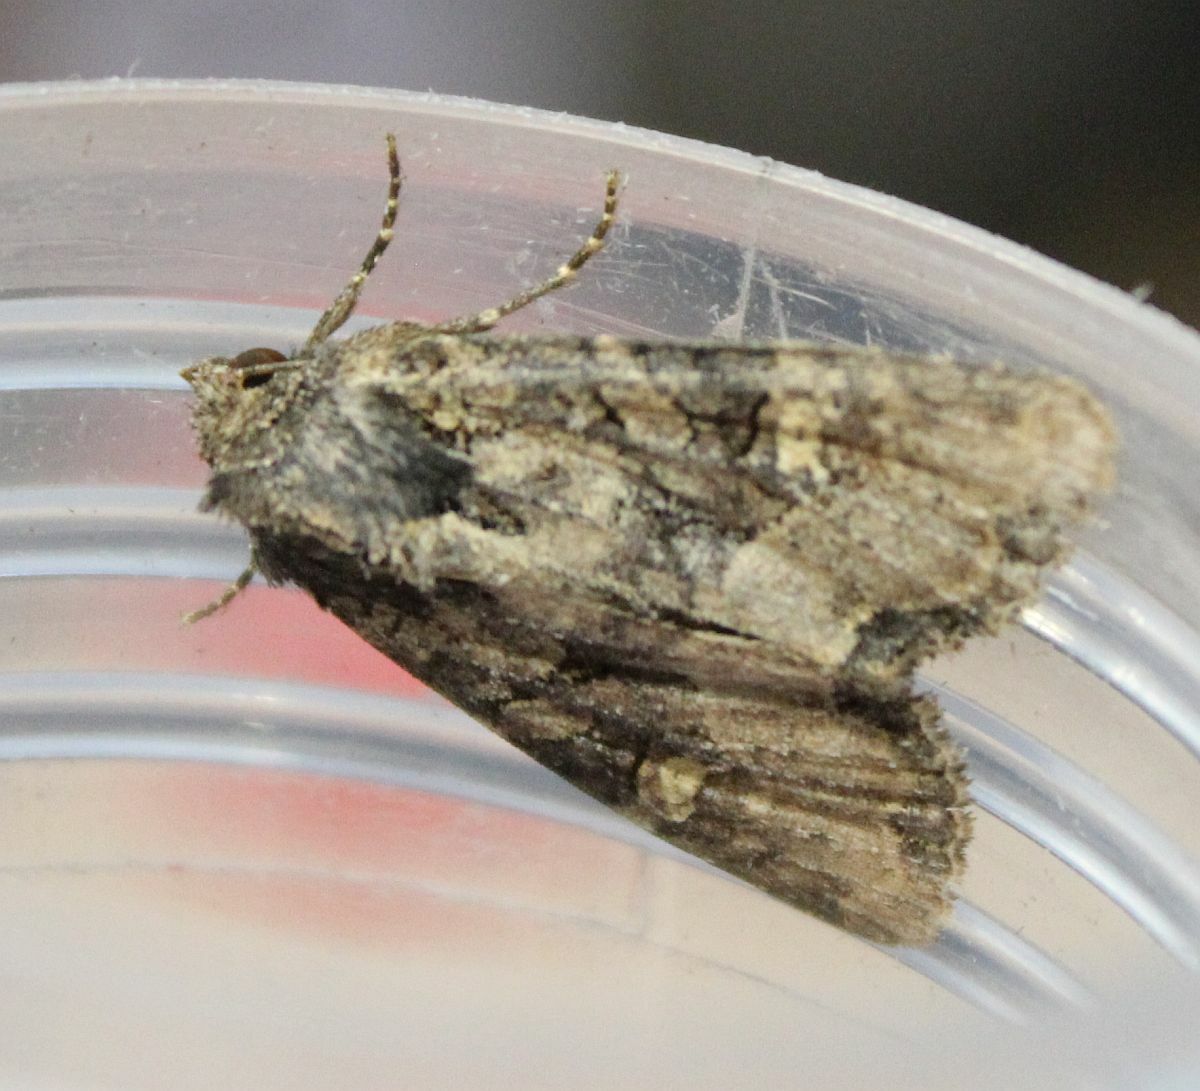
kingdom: Animalia
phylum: Arthropoda
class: Insecta
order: Lepidoptera
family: Noctuidae
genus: Apamea
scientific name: Apamea remissa
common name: Dusky brocade
